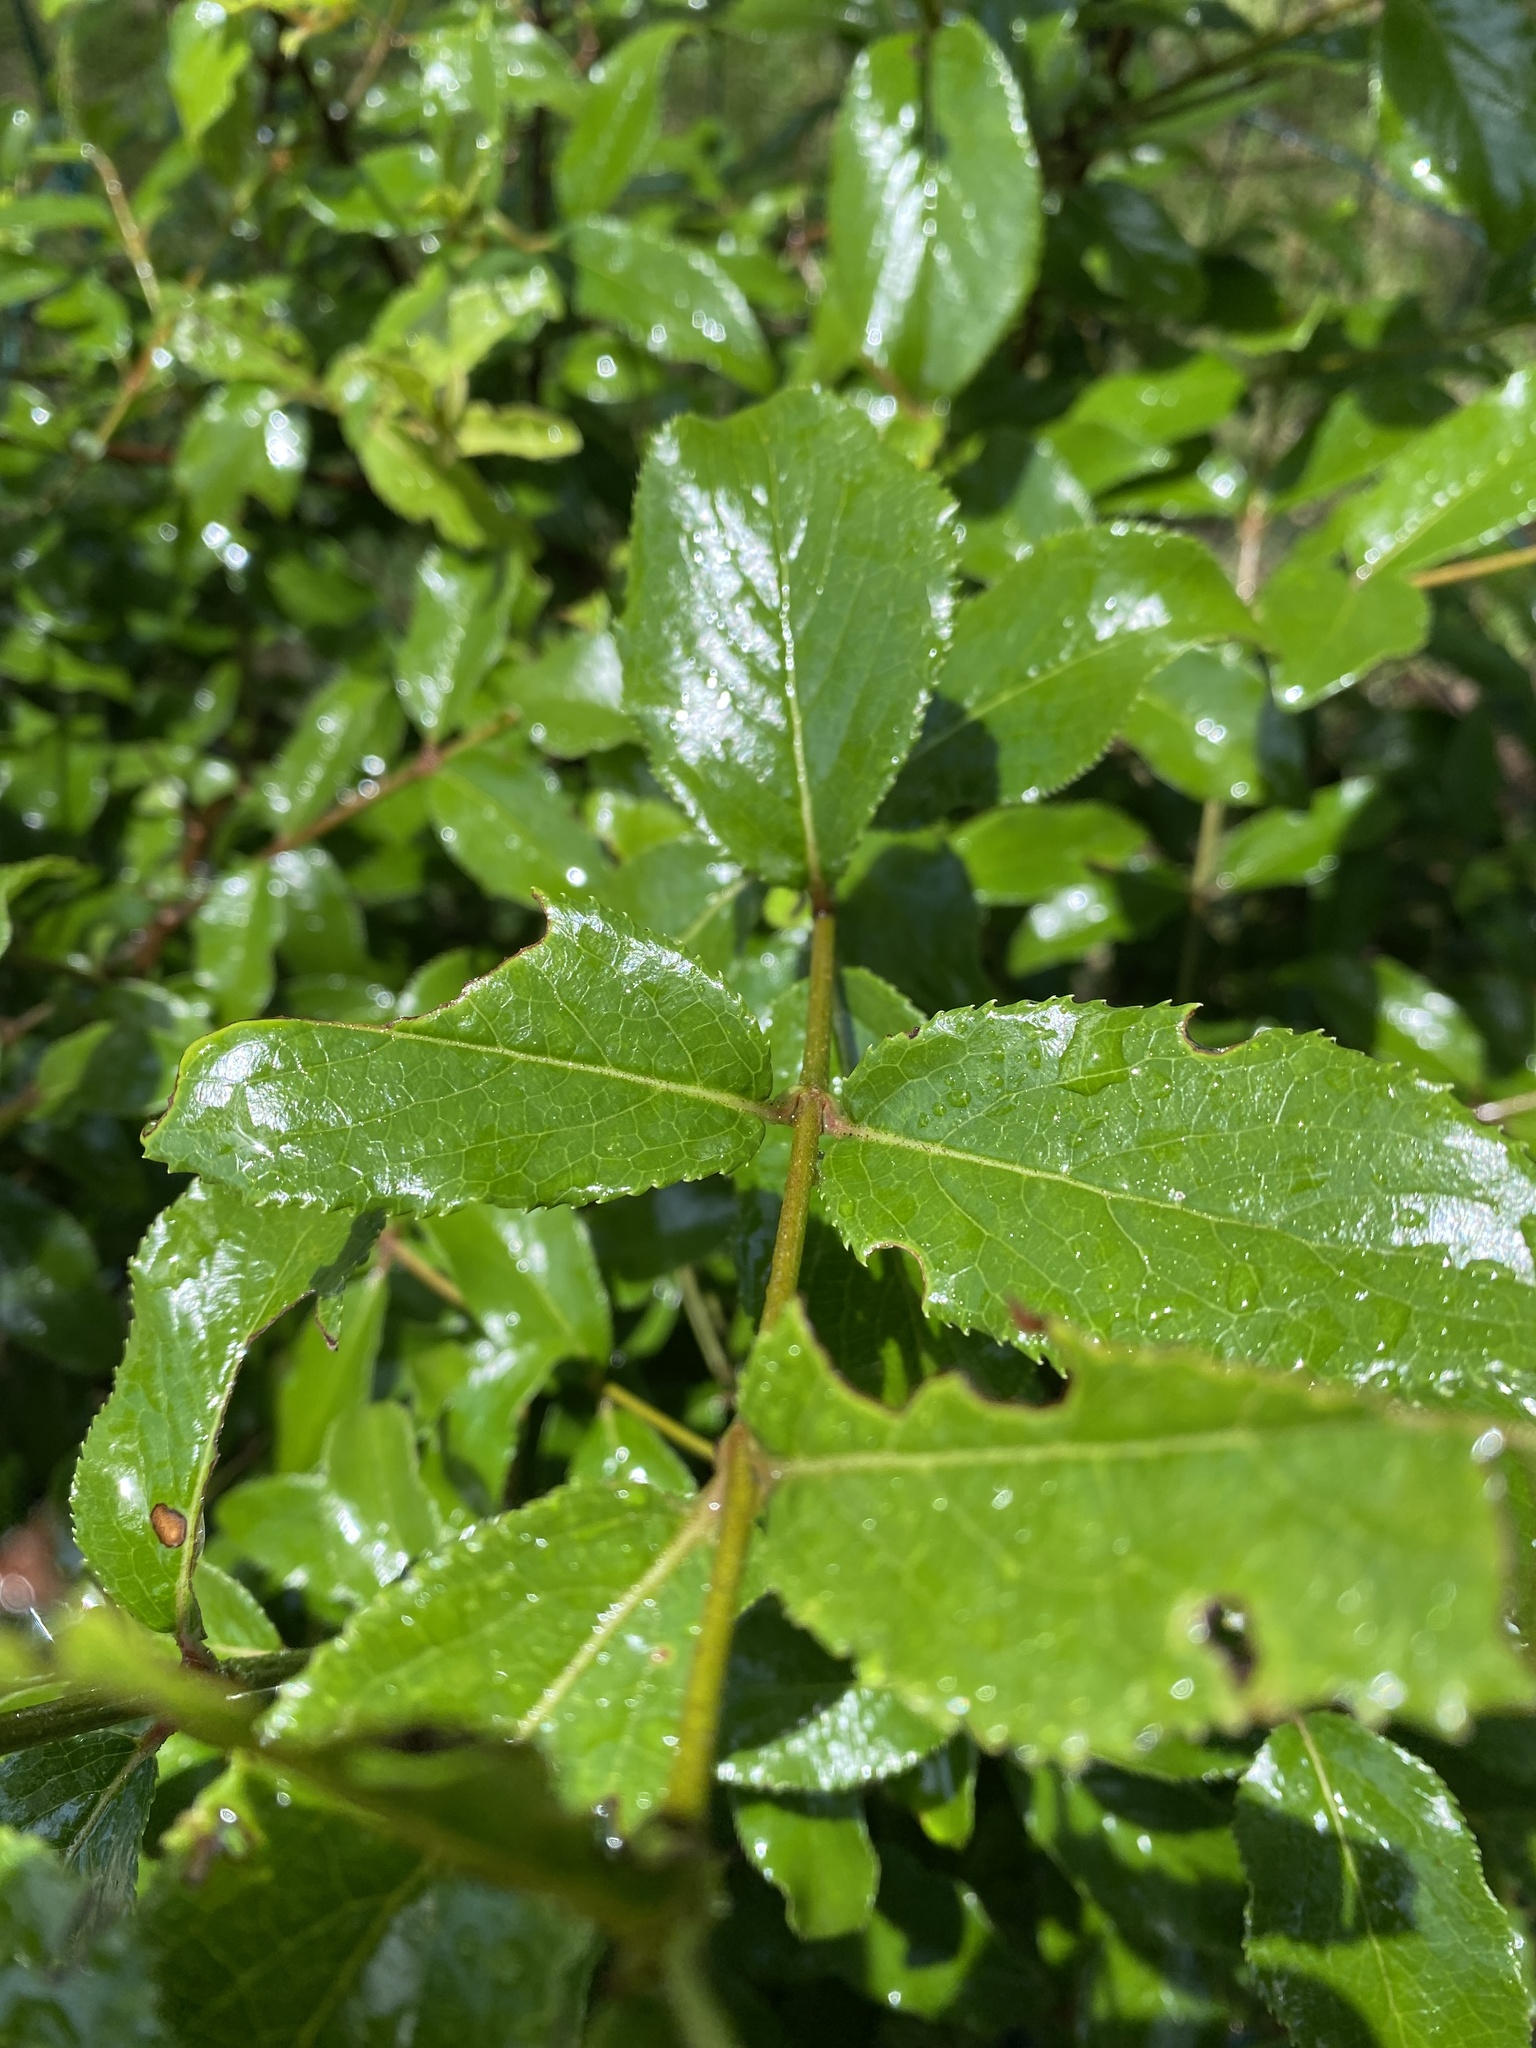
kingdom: Plantae
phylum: Tracheophyta
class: Magnoliopsida
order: Sapindales
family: Rutaceae
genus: Zanthoxylum
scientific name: Zanthoxylum clava-herculis
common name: Hercules'-club
